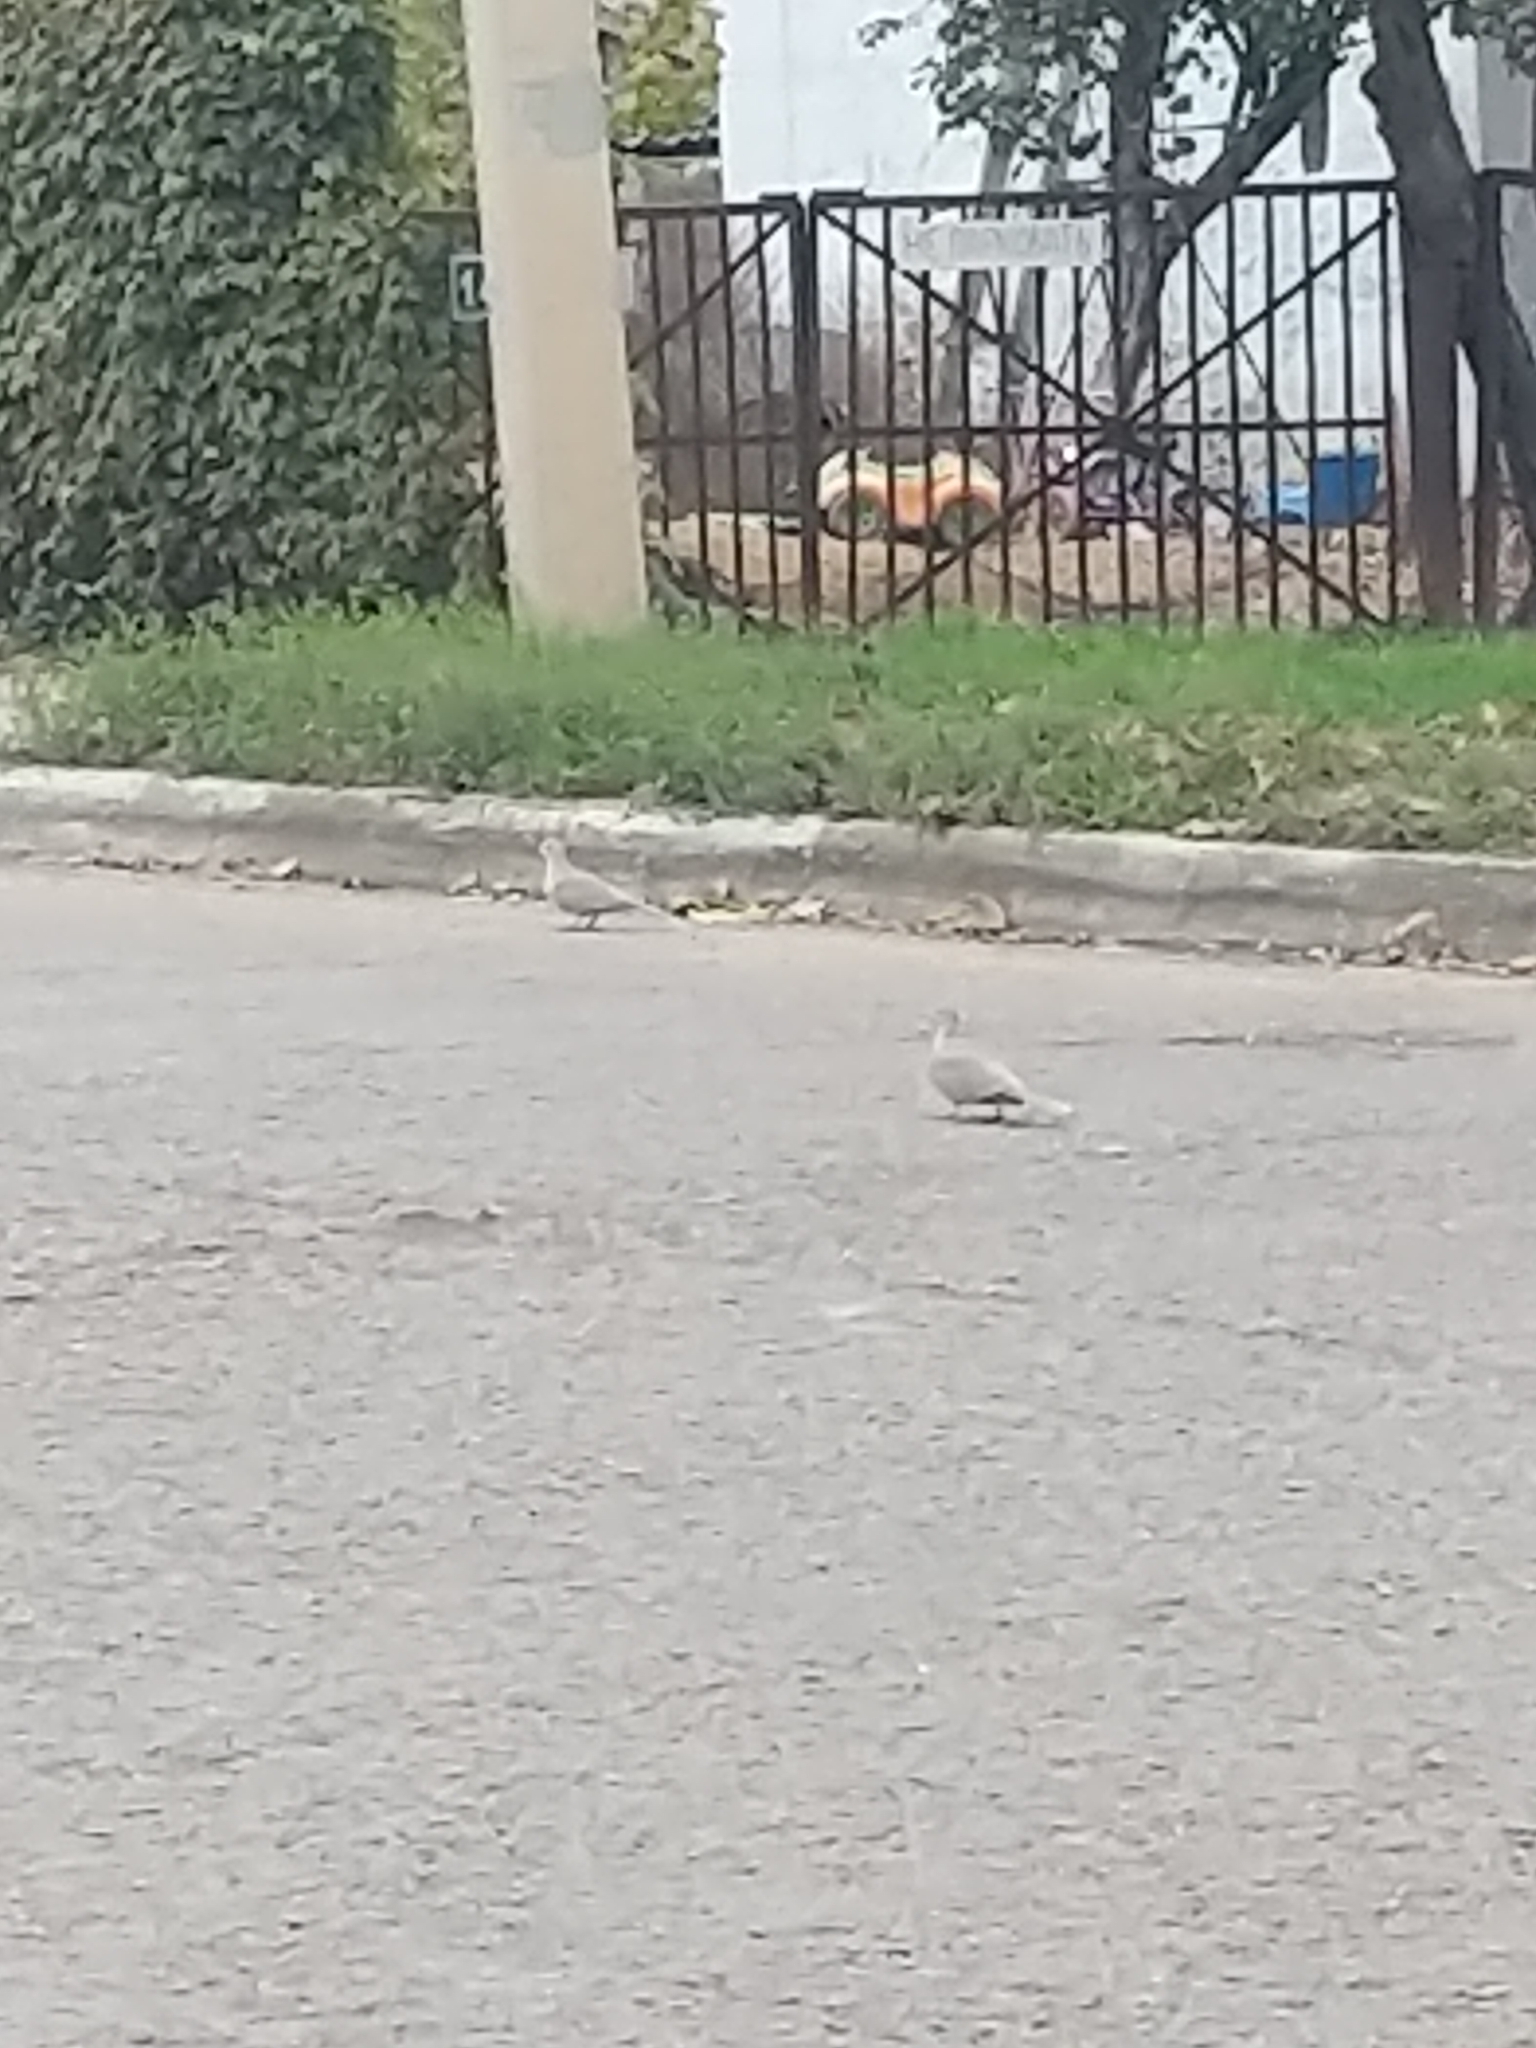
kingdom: Animalia
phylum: Chordata
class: Aves
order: Columbiformes
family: Columbidae
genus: Streptopelia
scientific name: Streptopelia decaocto
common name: Eurasian collared dove
